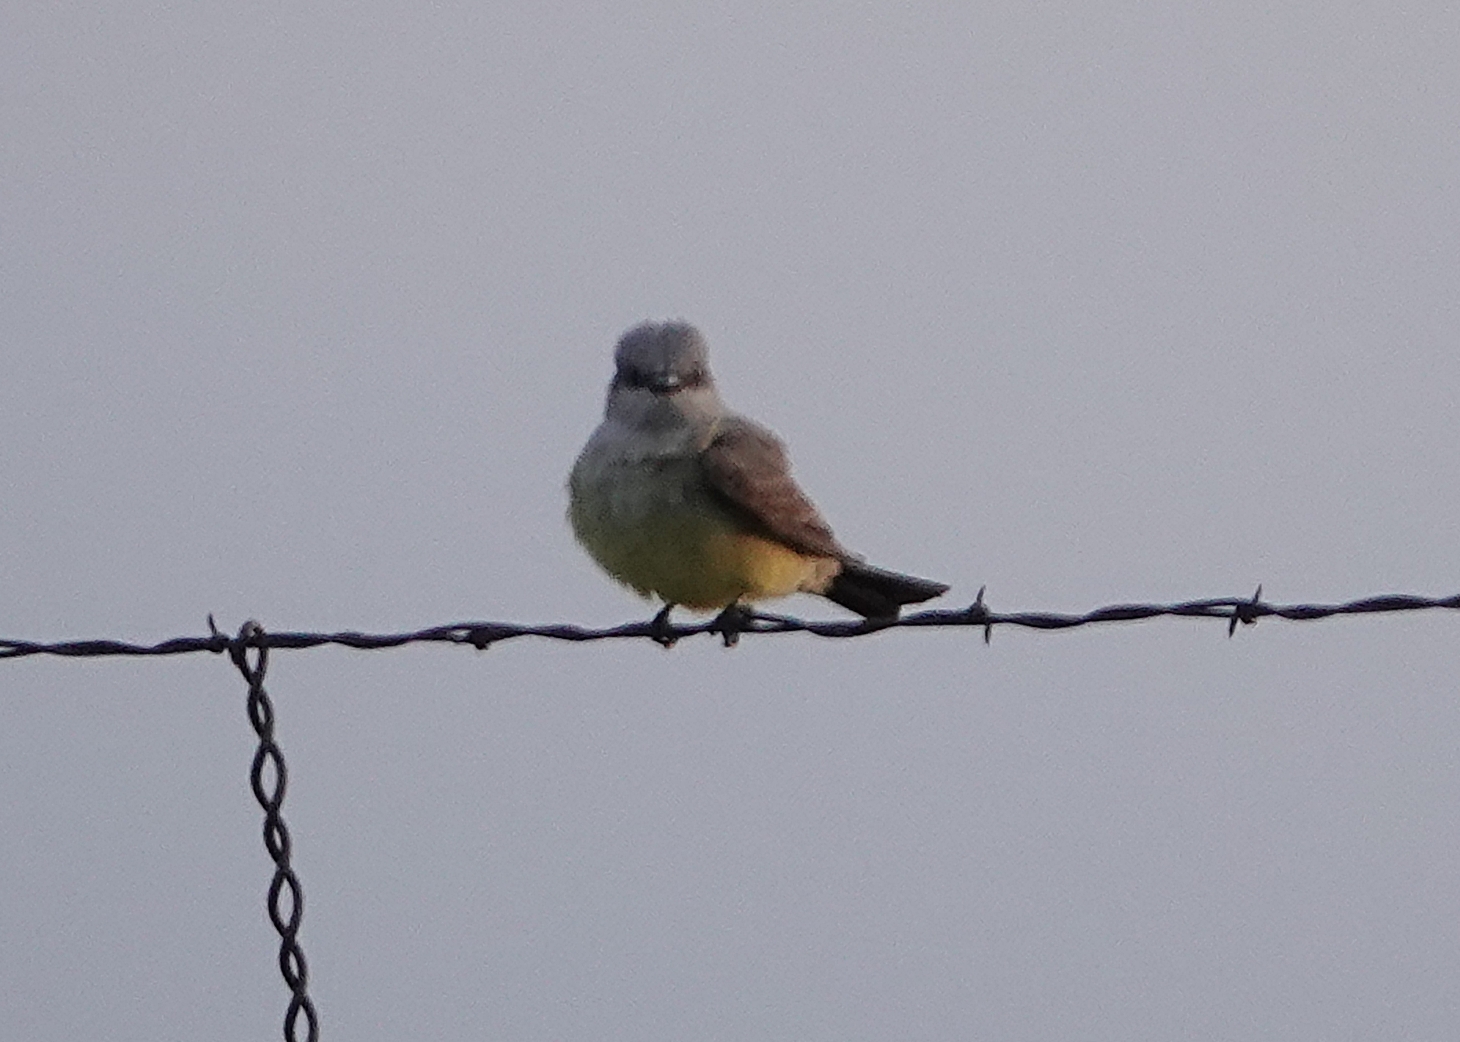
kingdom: Animalia
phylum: Chordata
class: Aves
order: Passeriformes
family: Tyrannidae
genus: Tyrannus
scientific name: Tyrannus verticalis
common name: Western kingbird
